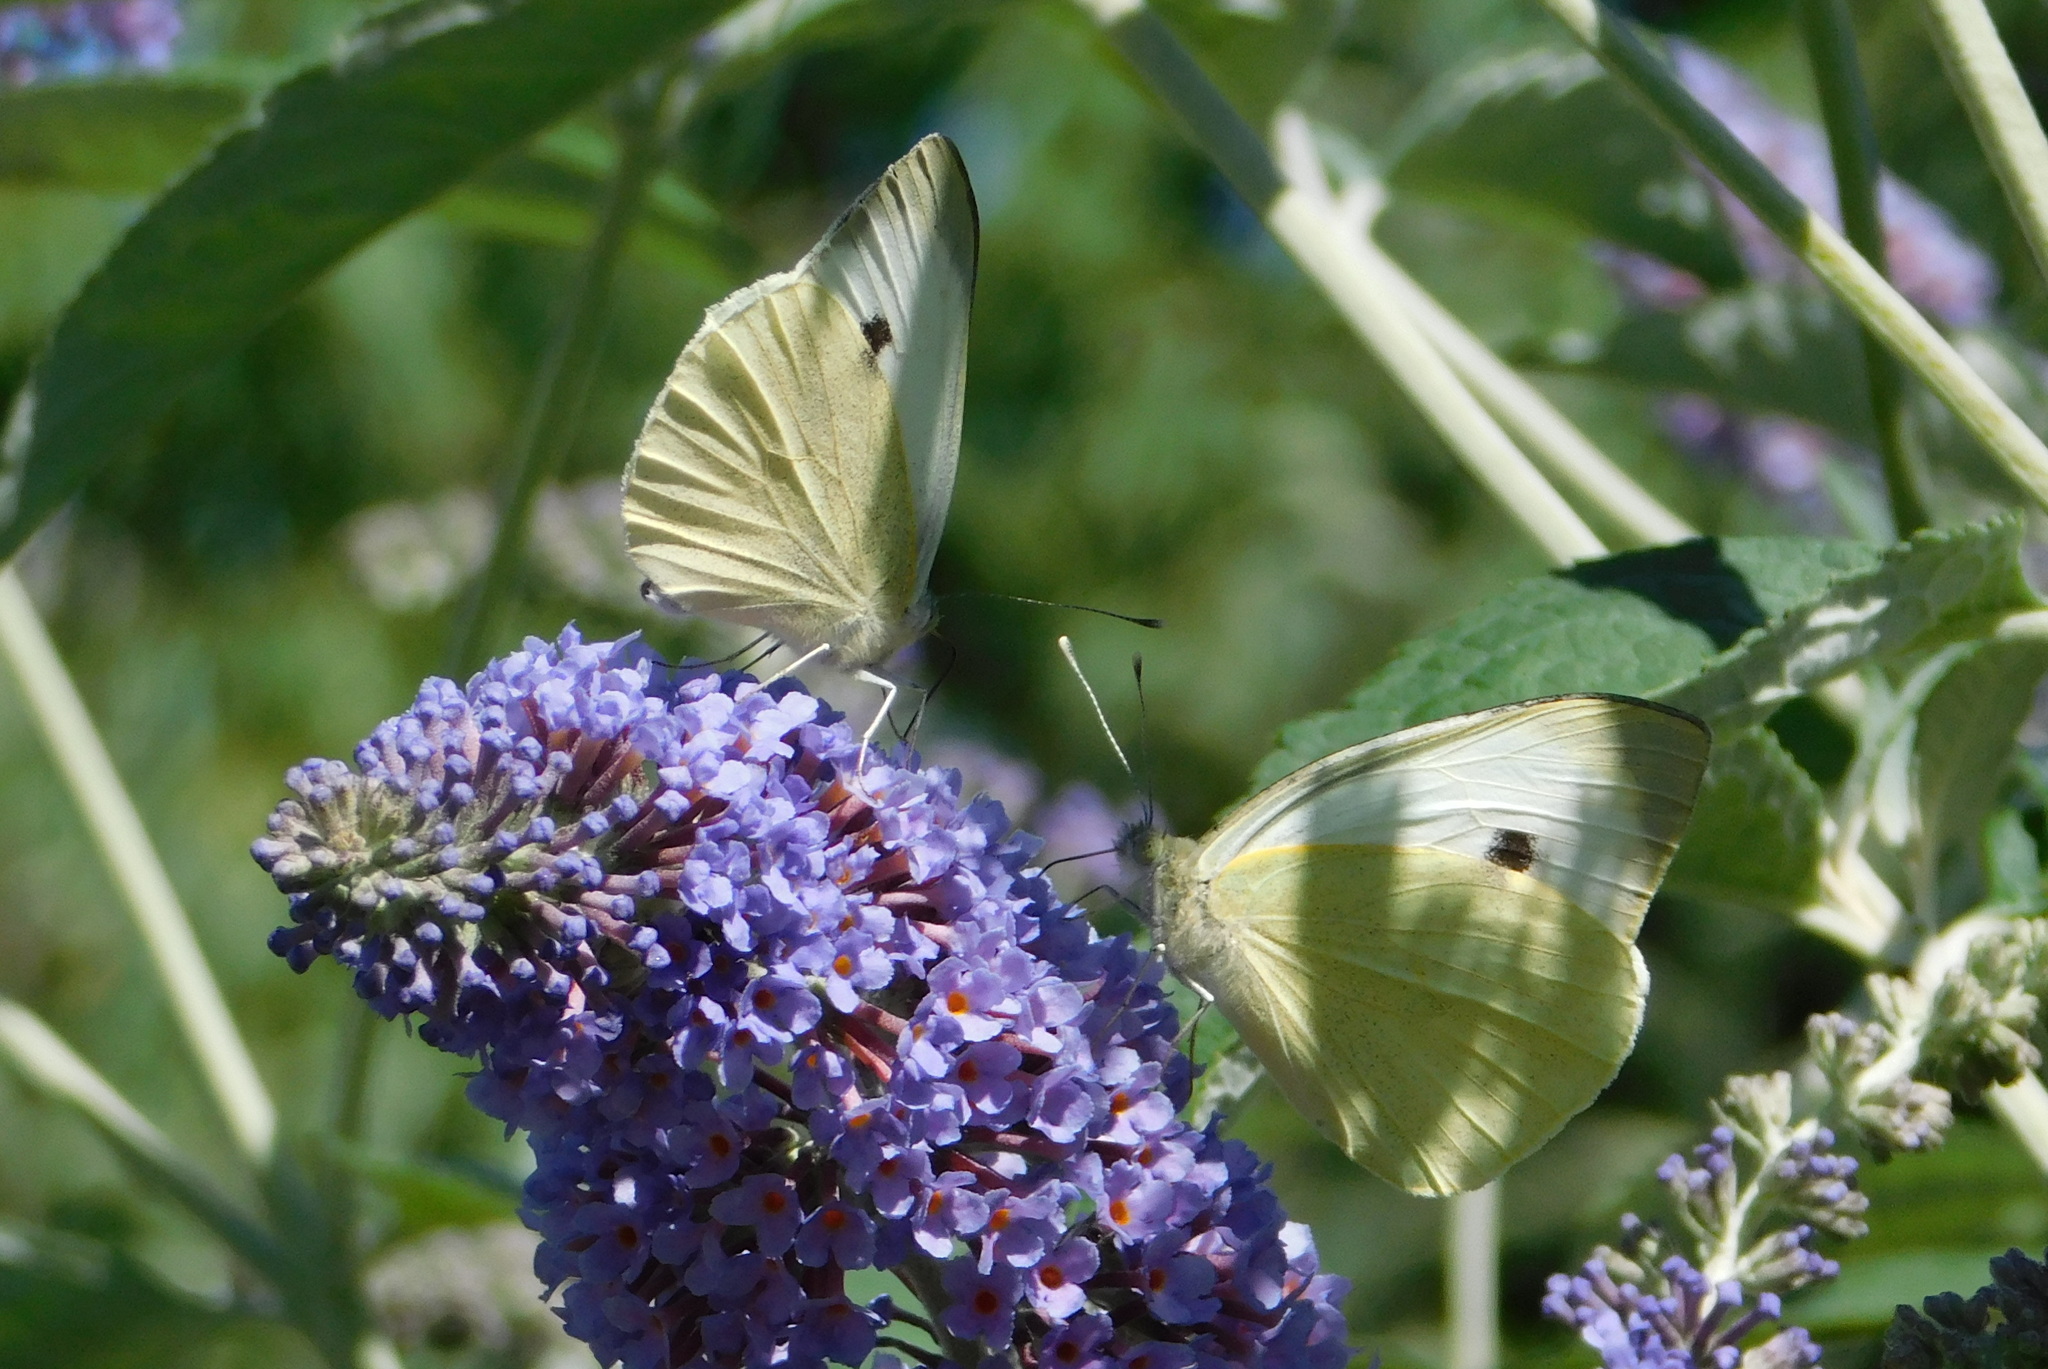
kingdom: Animalia
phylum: Arthropoda
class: Insecta
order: Lepidoptera
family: Pieridae
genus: Pieris
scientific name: Pieris brassicae
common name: Large white
